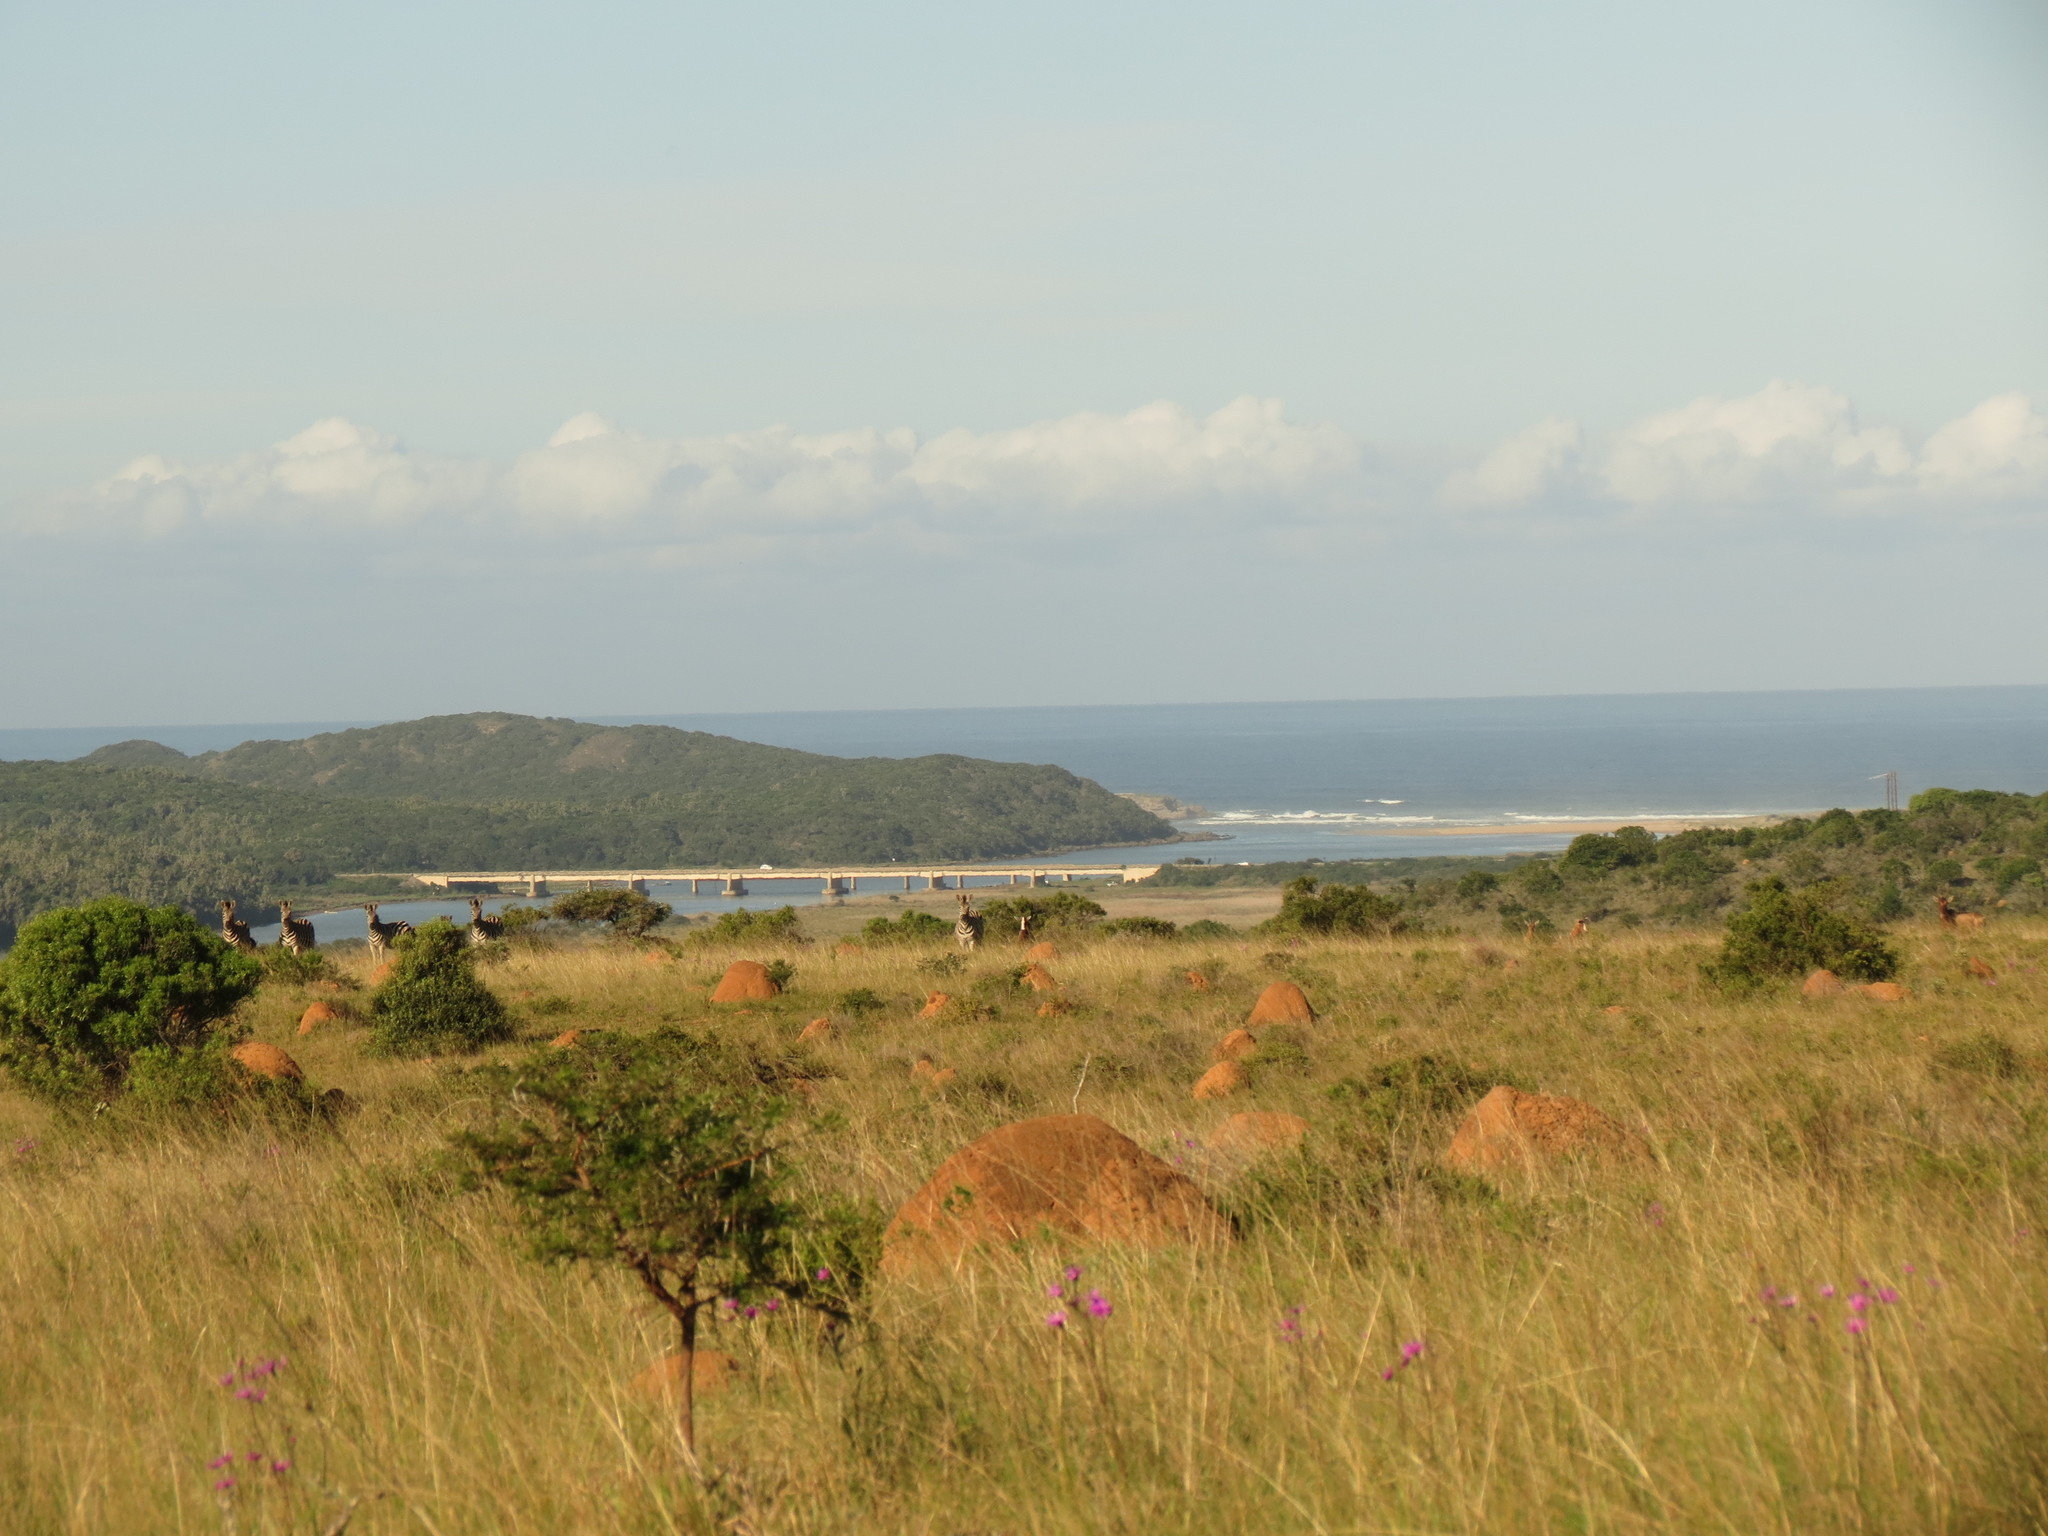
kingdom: Animalia
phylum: Chordata
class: Mammalia
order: Perissodactyla
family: Equidae
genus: Equus
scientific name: Equus quagga
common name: Plains zebra
